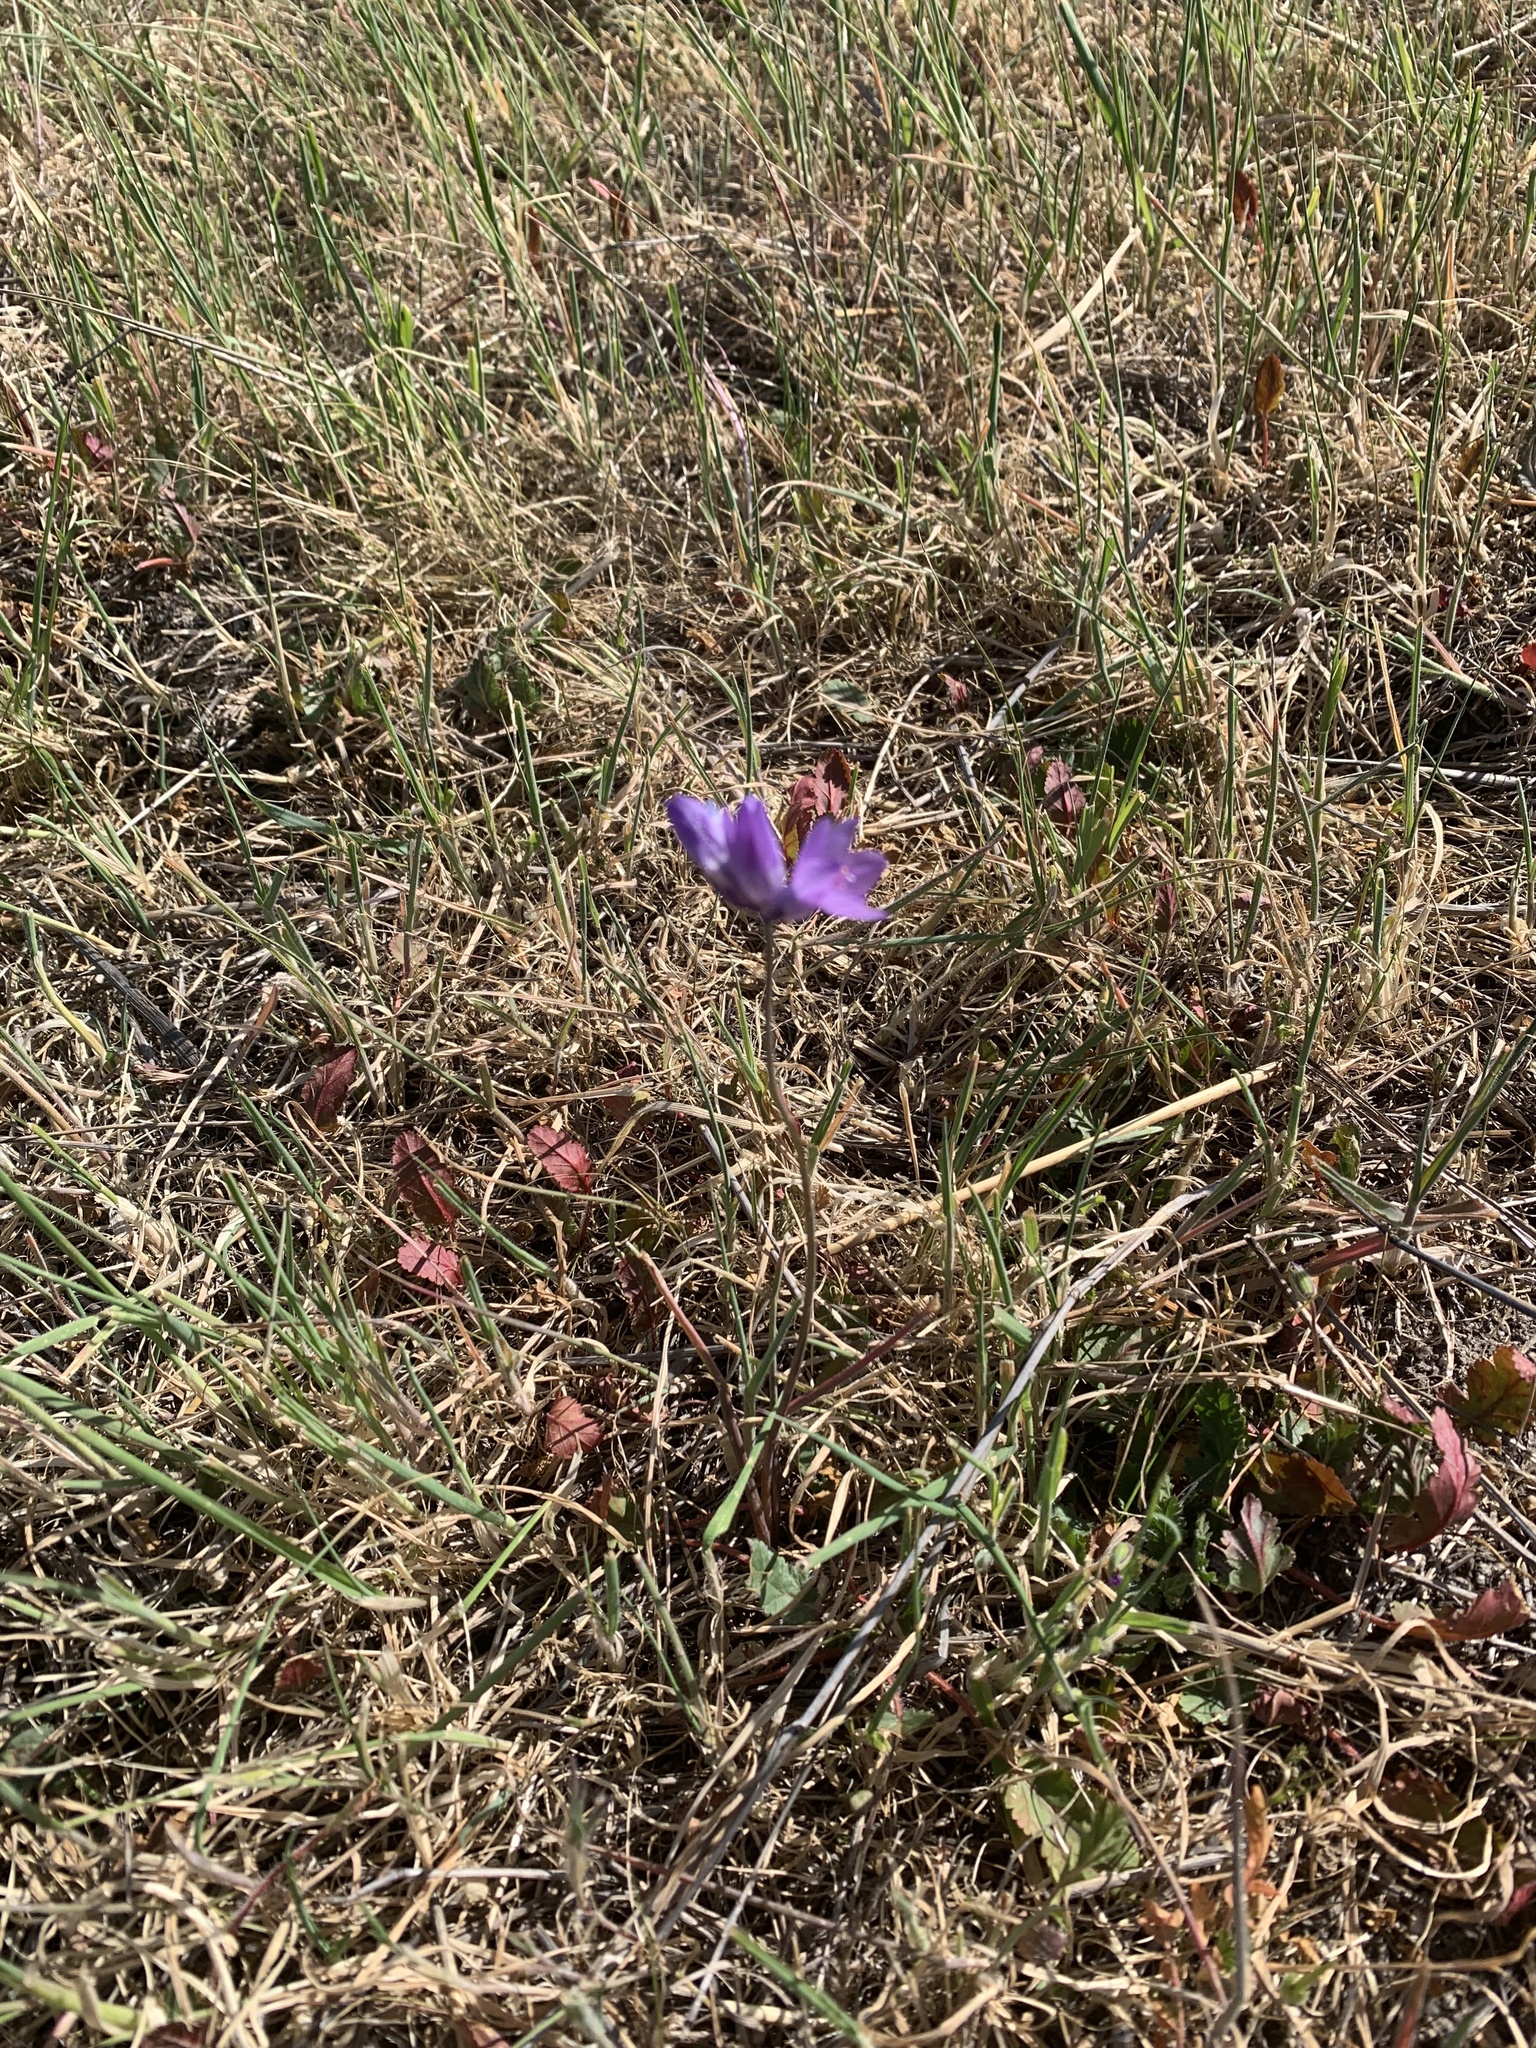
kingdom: Plantae
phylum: Tracheophyta
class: Liliopsida
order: Asparagales
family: Asparagaceae
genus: Dipterostemon
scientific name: Dipterostemon capitatus
